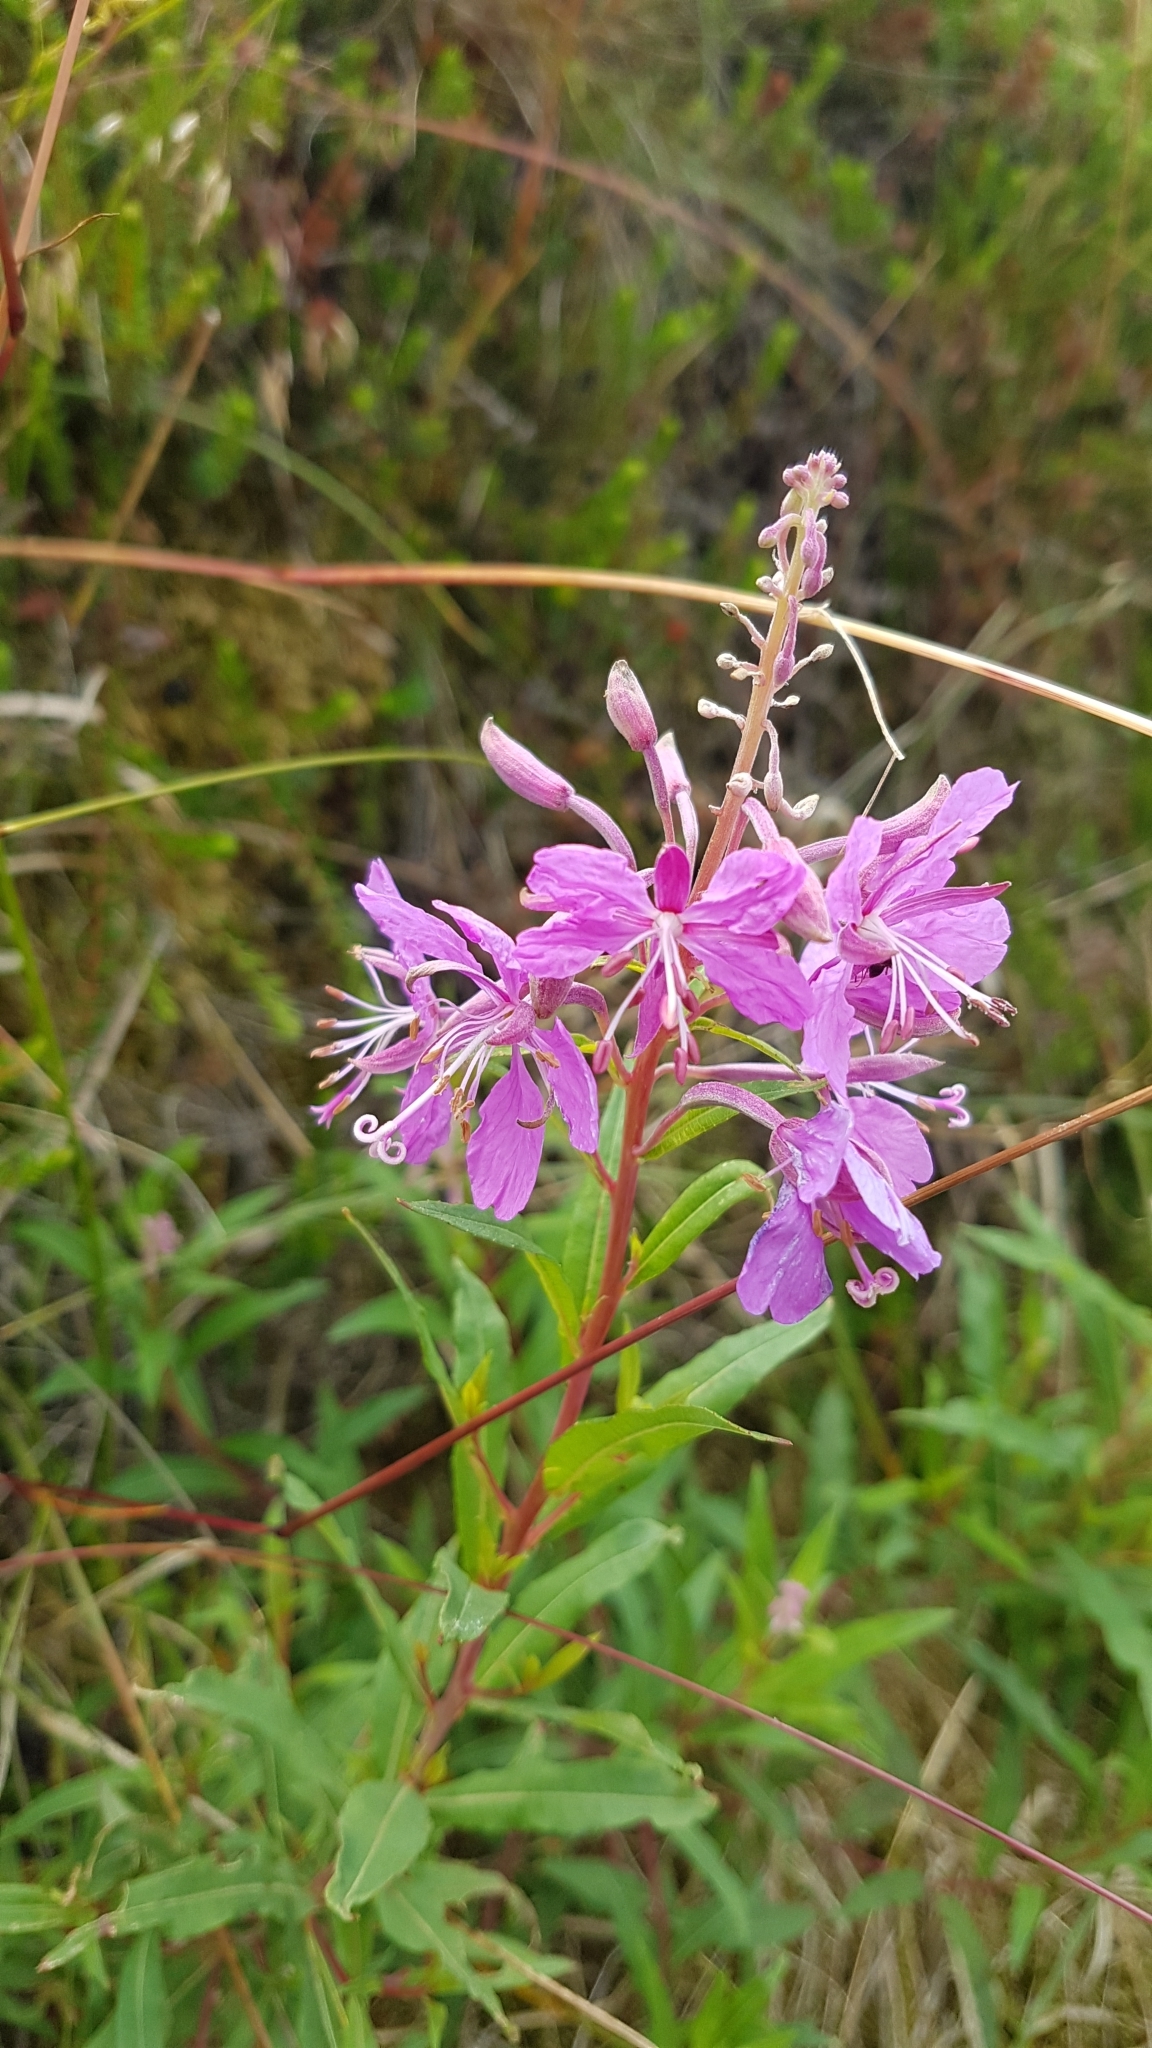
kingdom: Plantae
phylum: Tracheophyta
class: Magnoliopsida
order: Myrtales
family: Onagraceae
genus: Chamaenerion
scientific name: Chamaenerion angustifolium
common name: Fireweed
